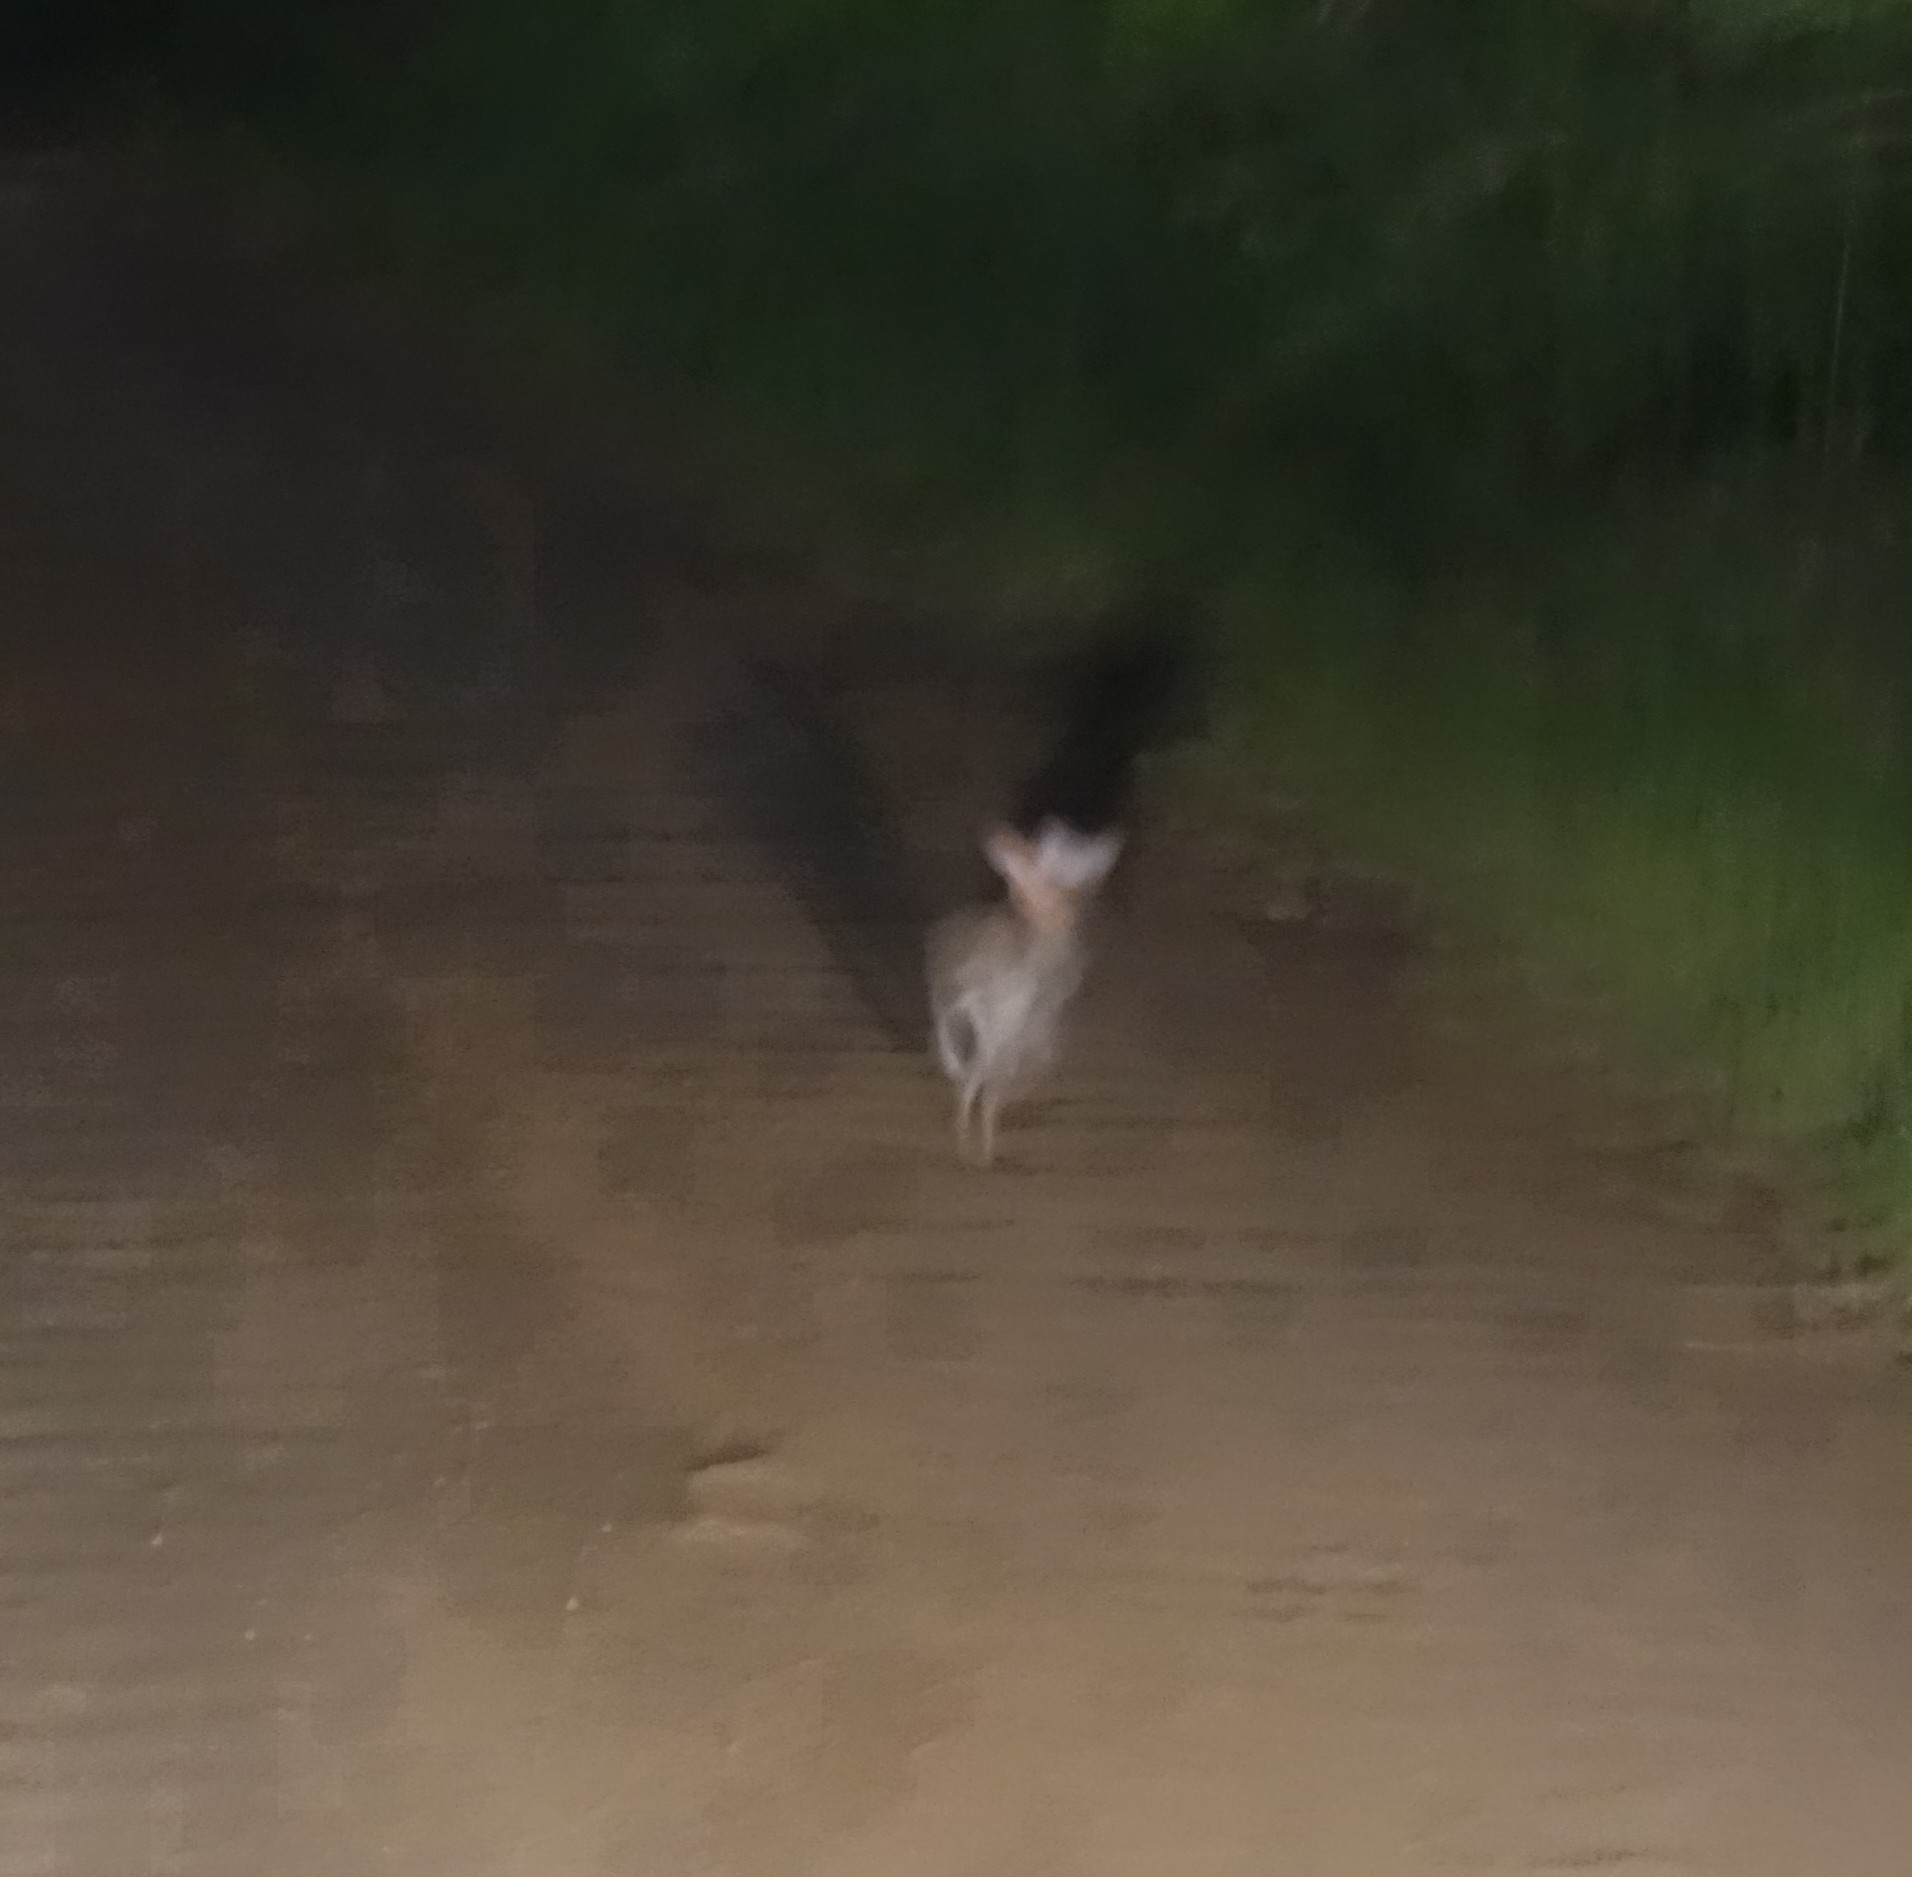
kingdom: Animalia
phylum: Chordata
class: Mammalia
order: Lagomorpha
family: Leporidae
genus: Lepus
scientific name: Lepus saxatilis
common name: Scrub hare
